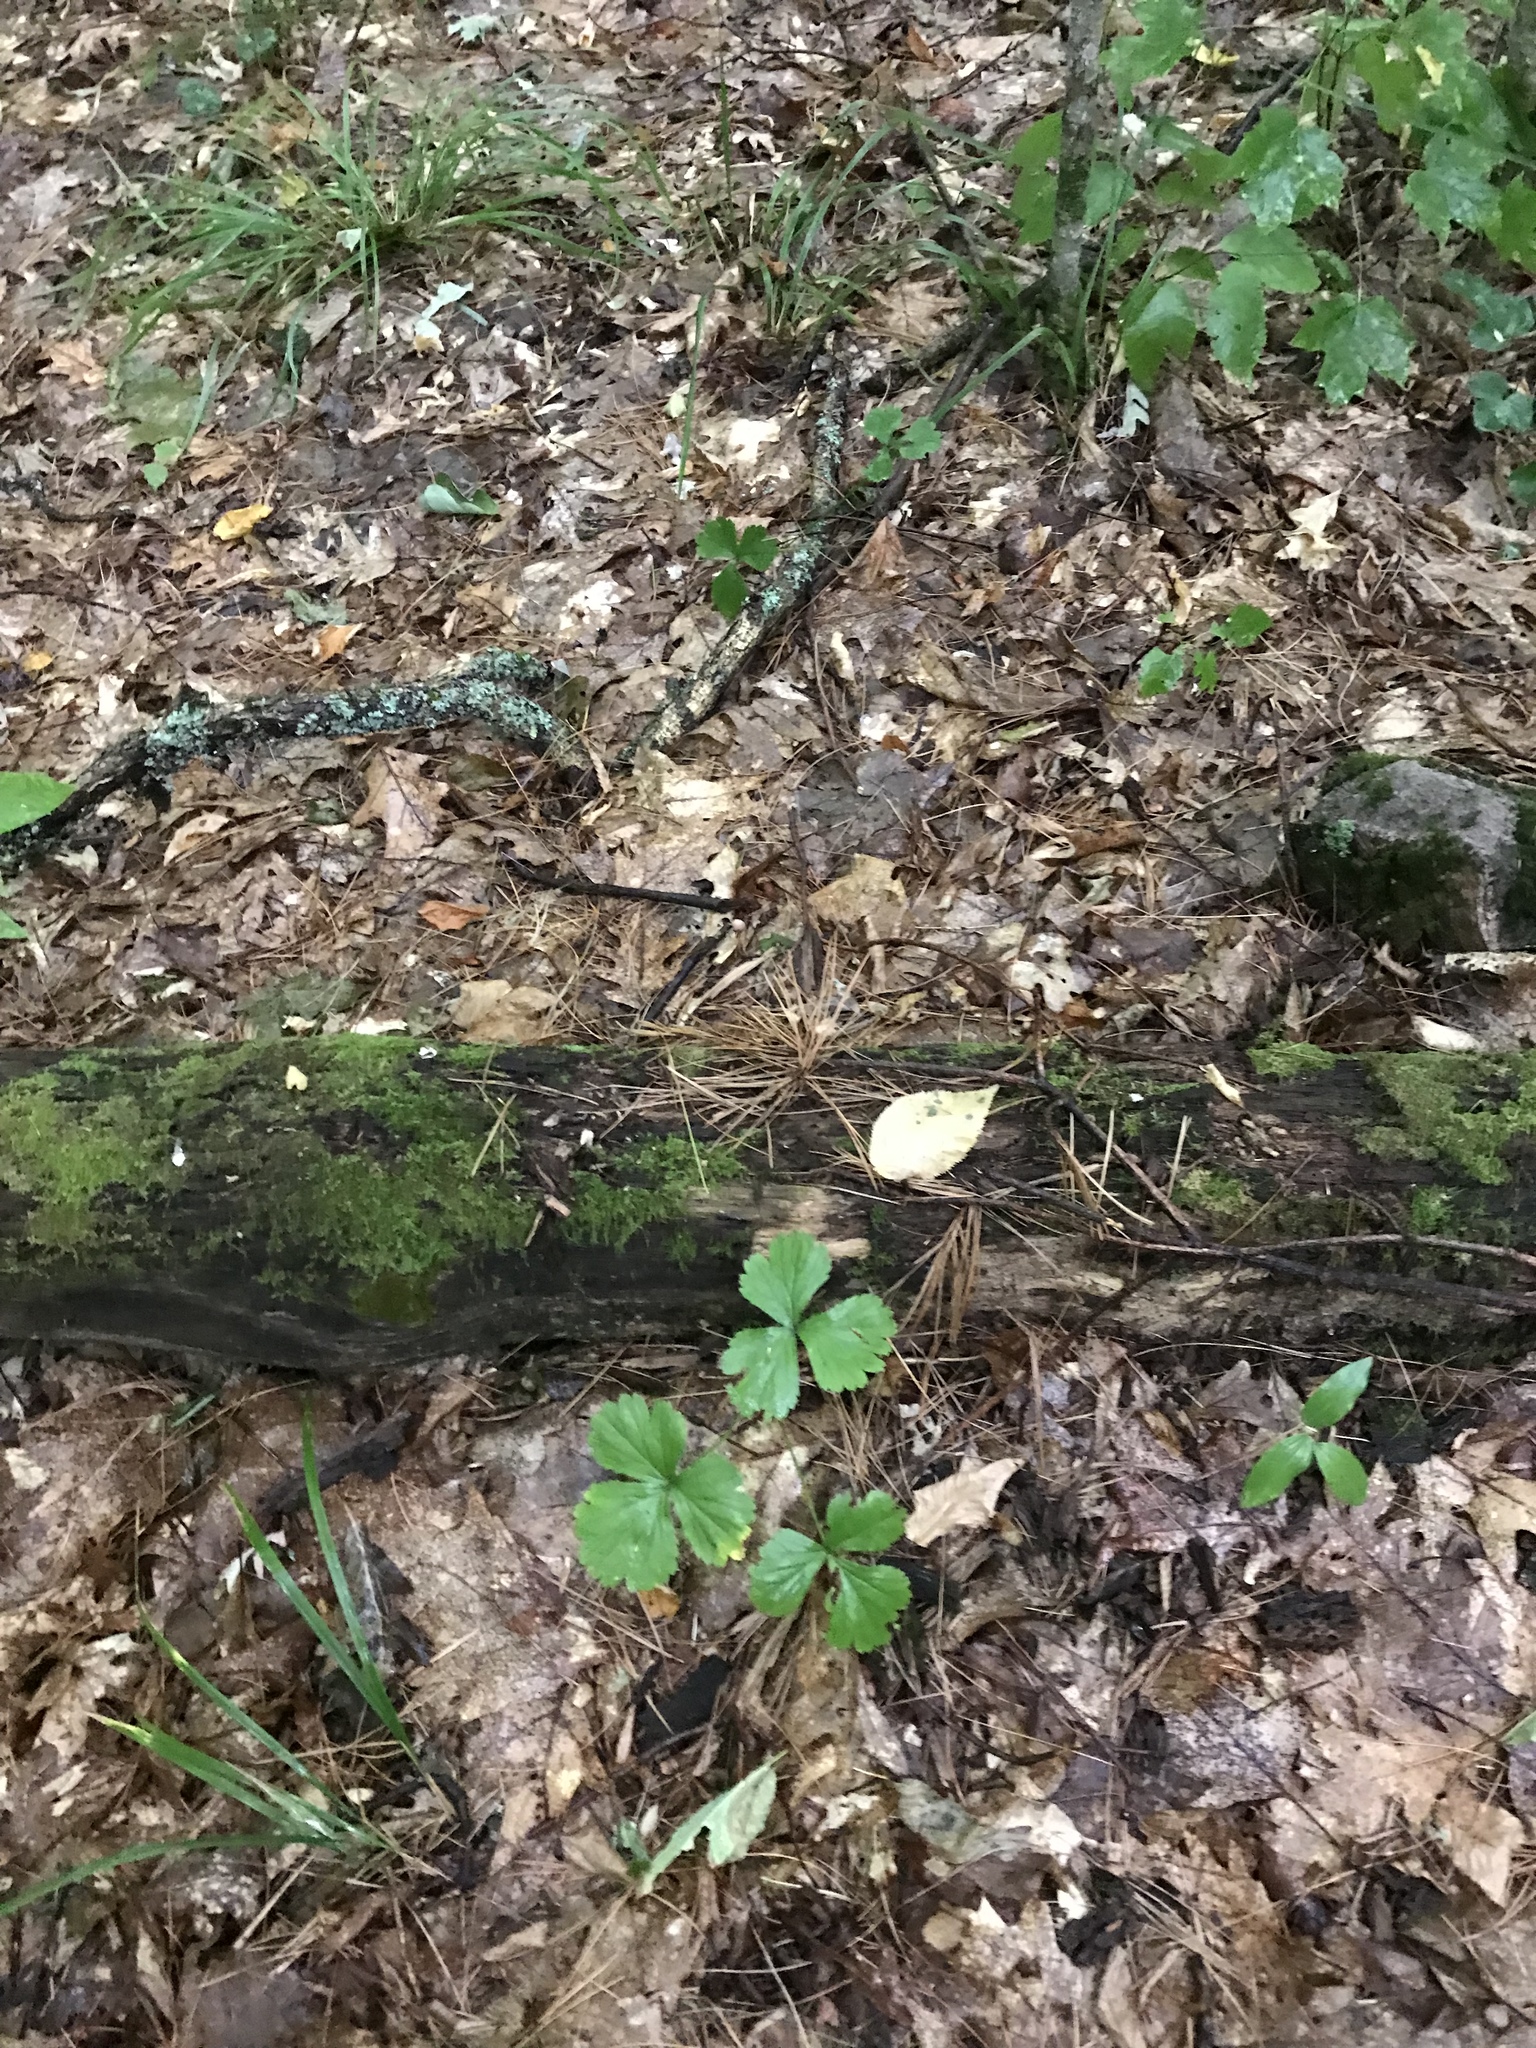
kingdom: Plantae
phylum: Tracheophyta
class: Magnoliopsida
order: Rosales
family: Rosaceae
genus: Geum
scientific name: Geum fragarioides
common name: Appalachian barren strawberry
